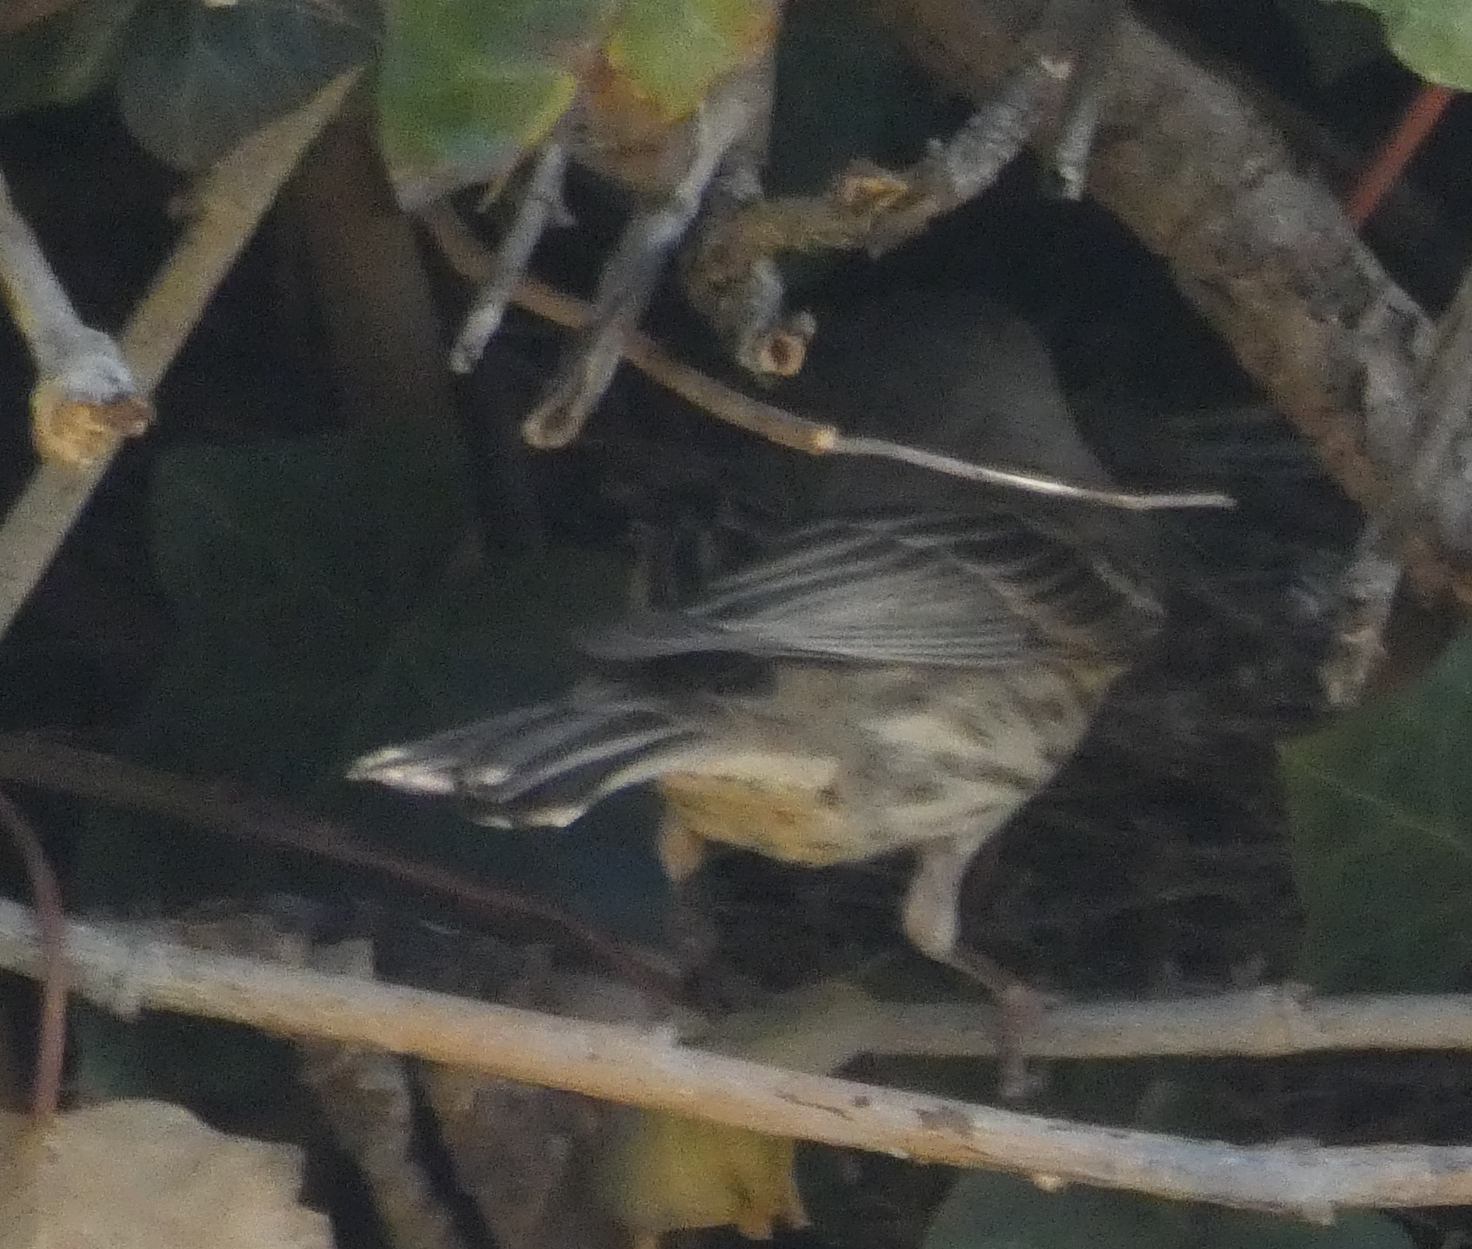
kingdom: Animalia
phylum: Chordata
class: Aves
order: Passeriformes
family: Fringillidae
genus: Haemorhous
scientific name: Haemorhous mexicanus
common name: House finch
